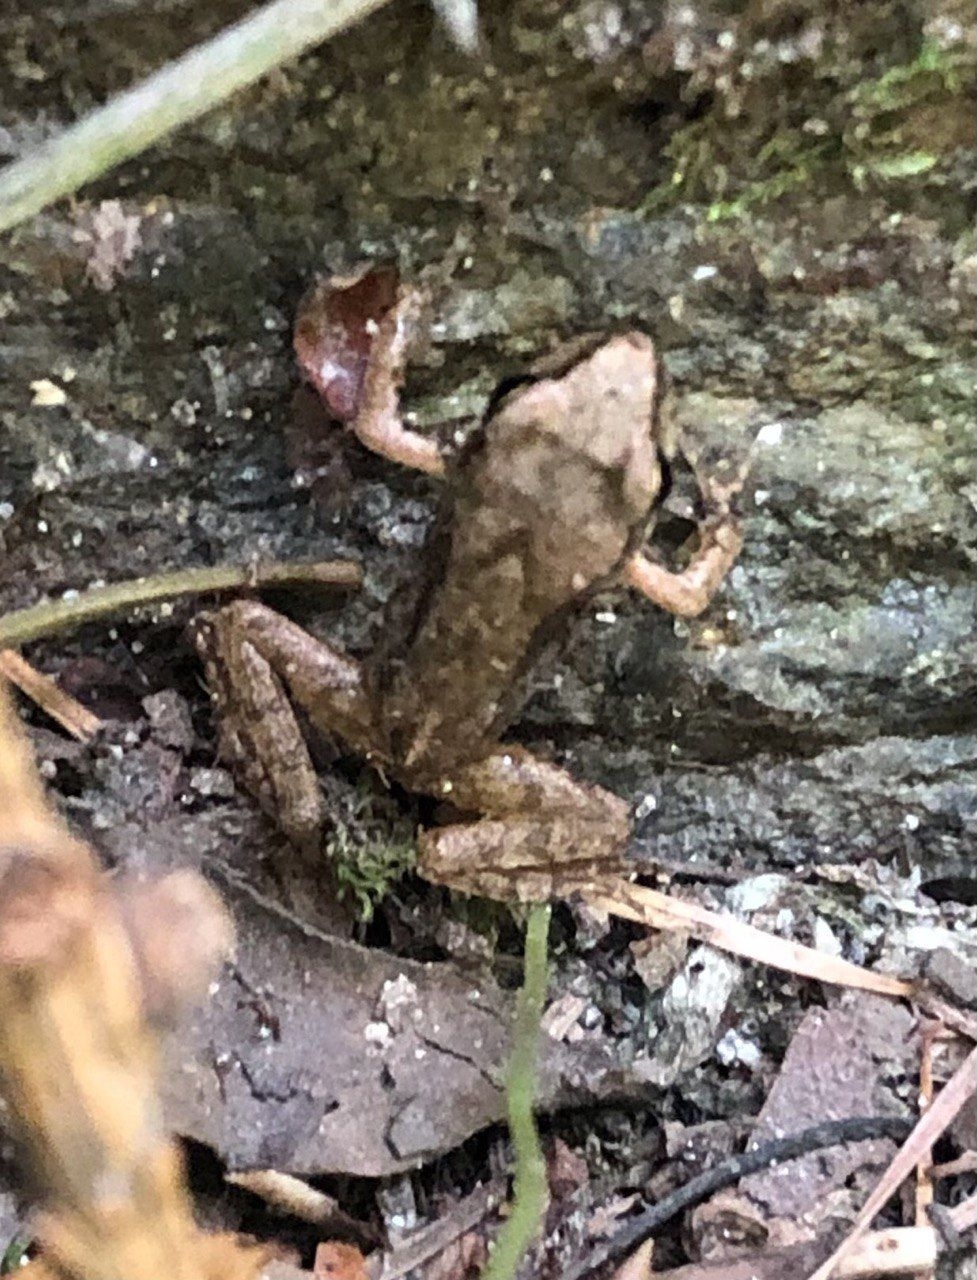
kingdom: Animalia
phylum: Chordata
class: Amphibia
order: Anura
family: Ranidae
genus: Rana
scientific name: Rana temporaria
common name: Common frog
